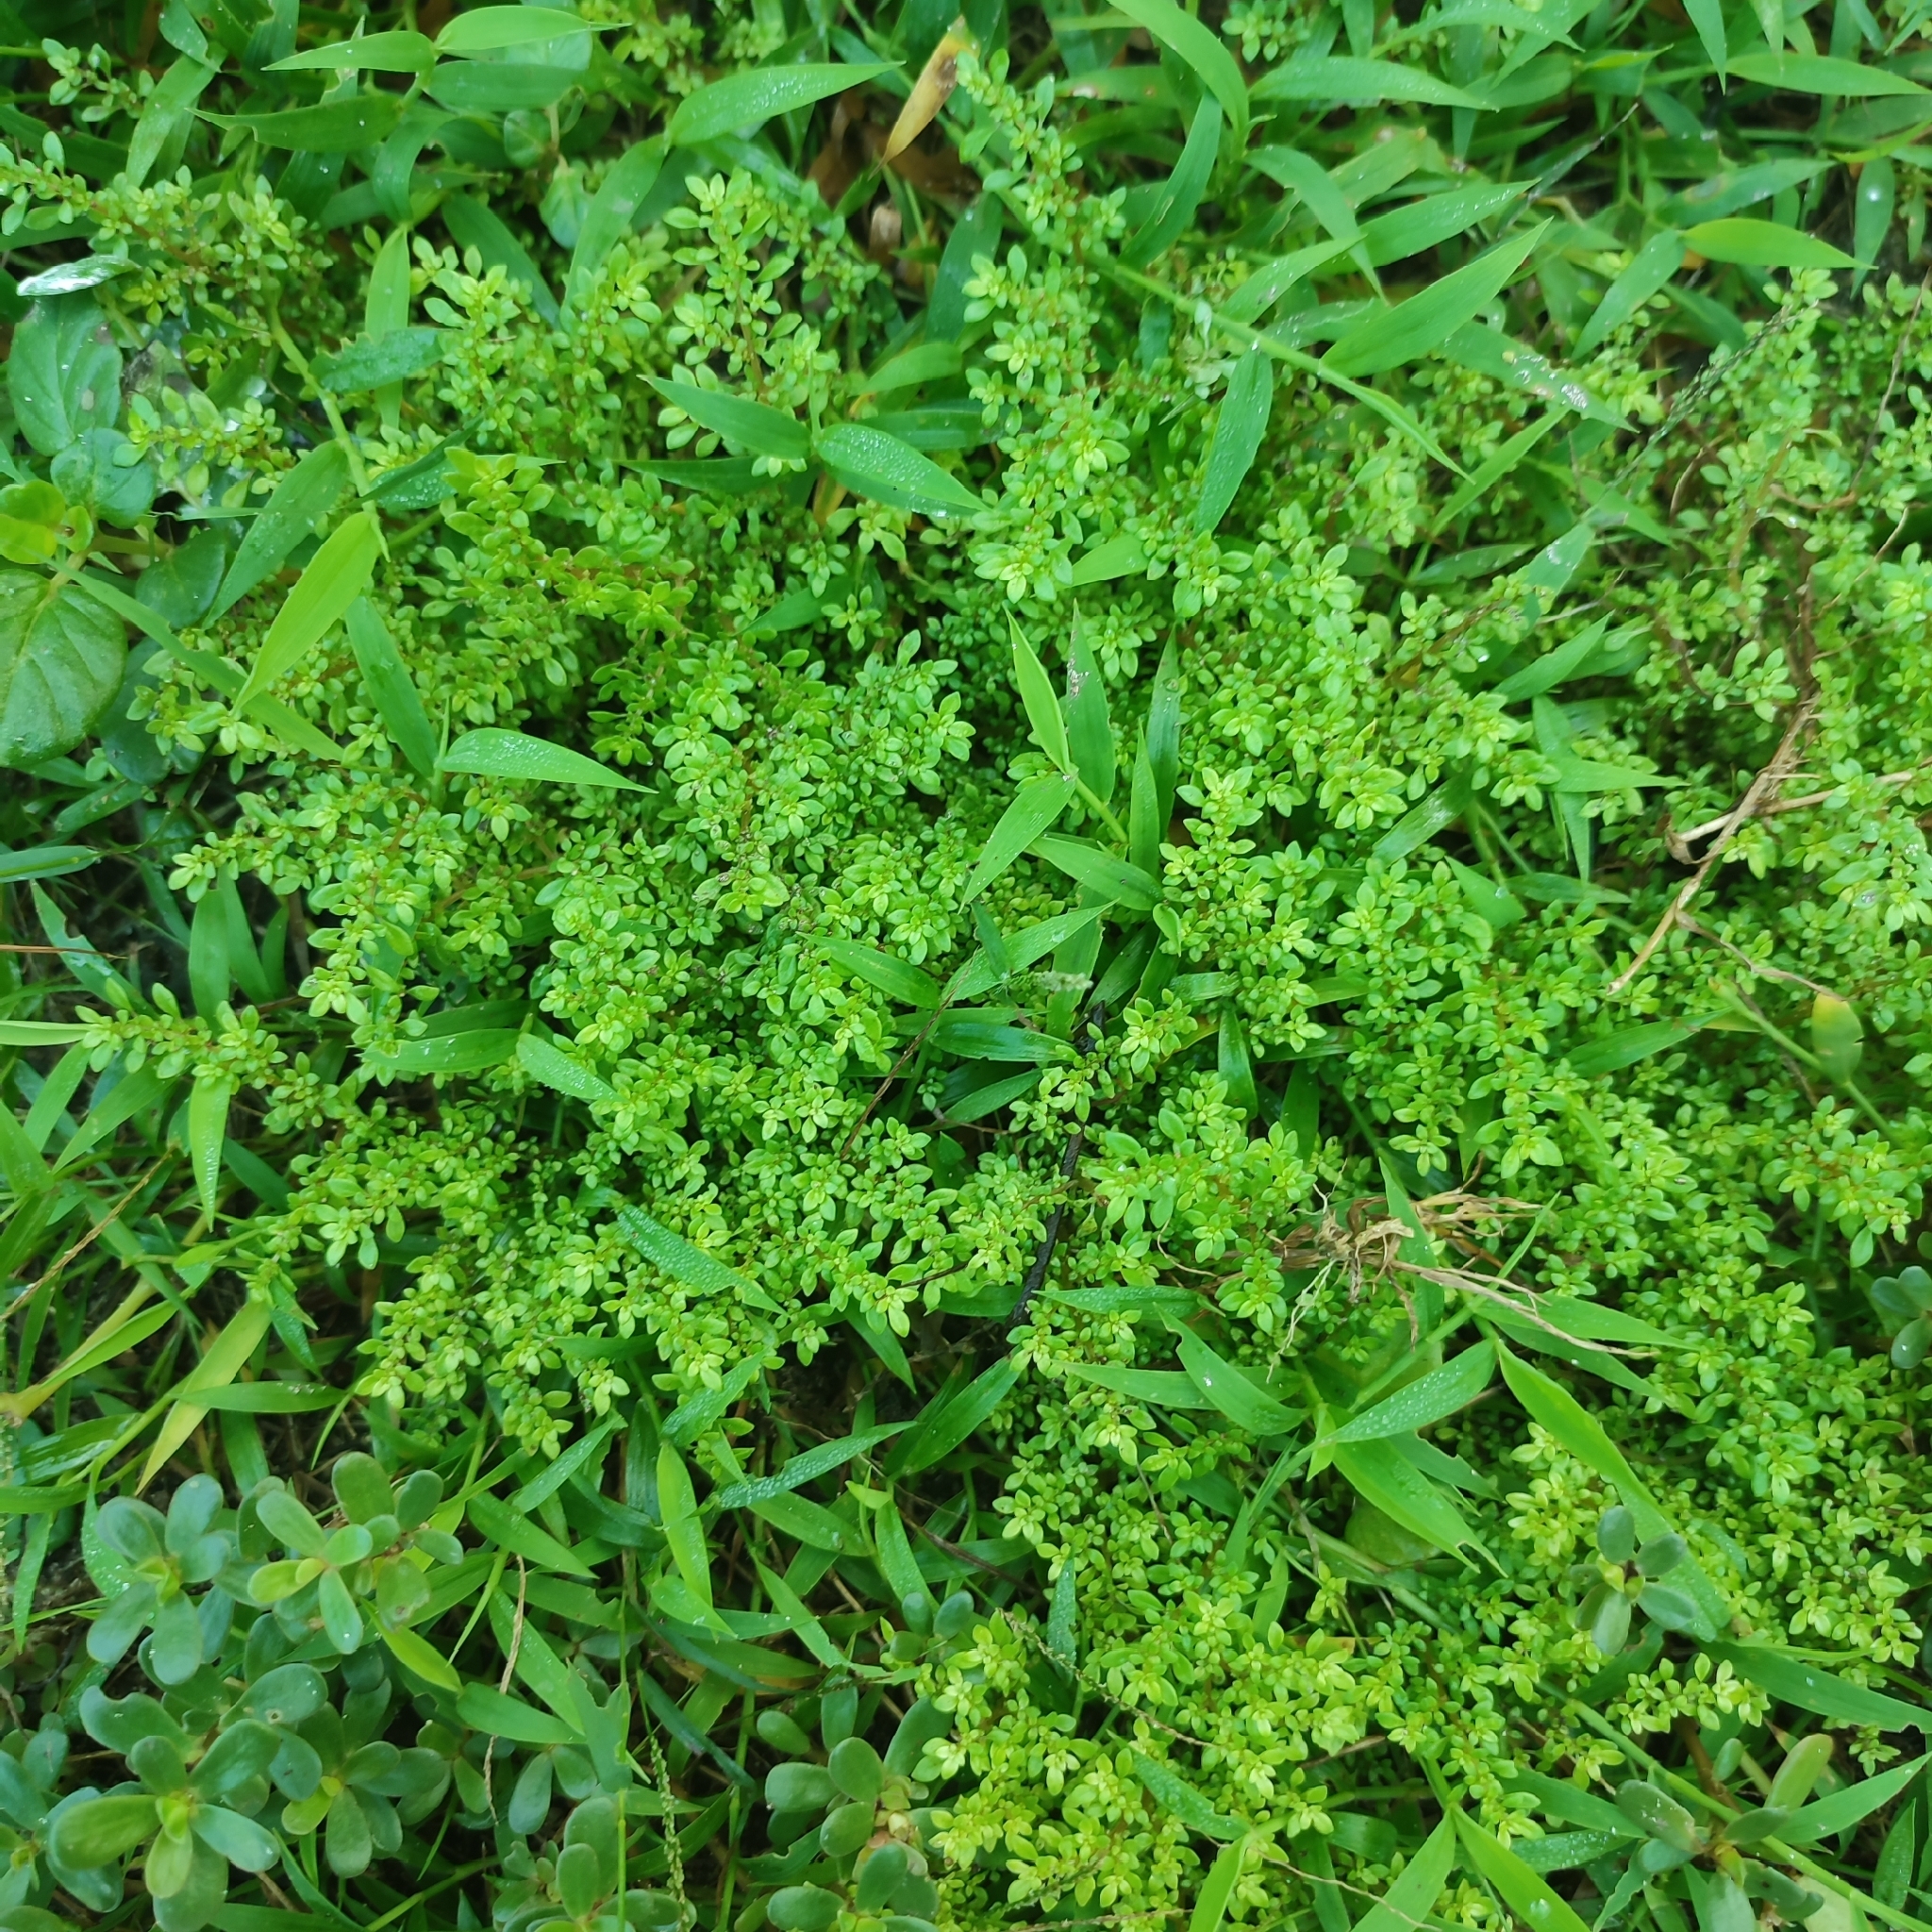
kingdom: Plantae
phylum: Tracheophyta
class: Magnoliopsida
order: Rosales
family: Urticaceae
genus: Pilea
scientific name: Pilea microphylla
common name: Artillery-plant
